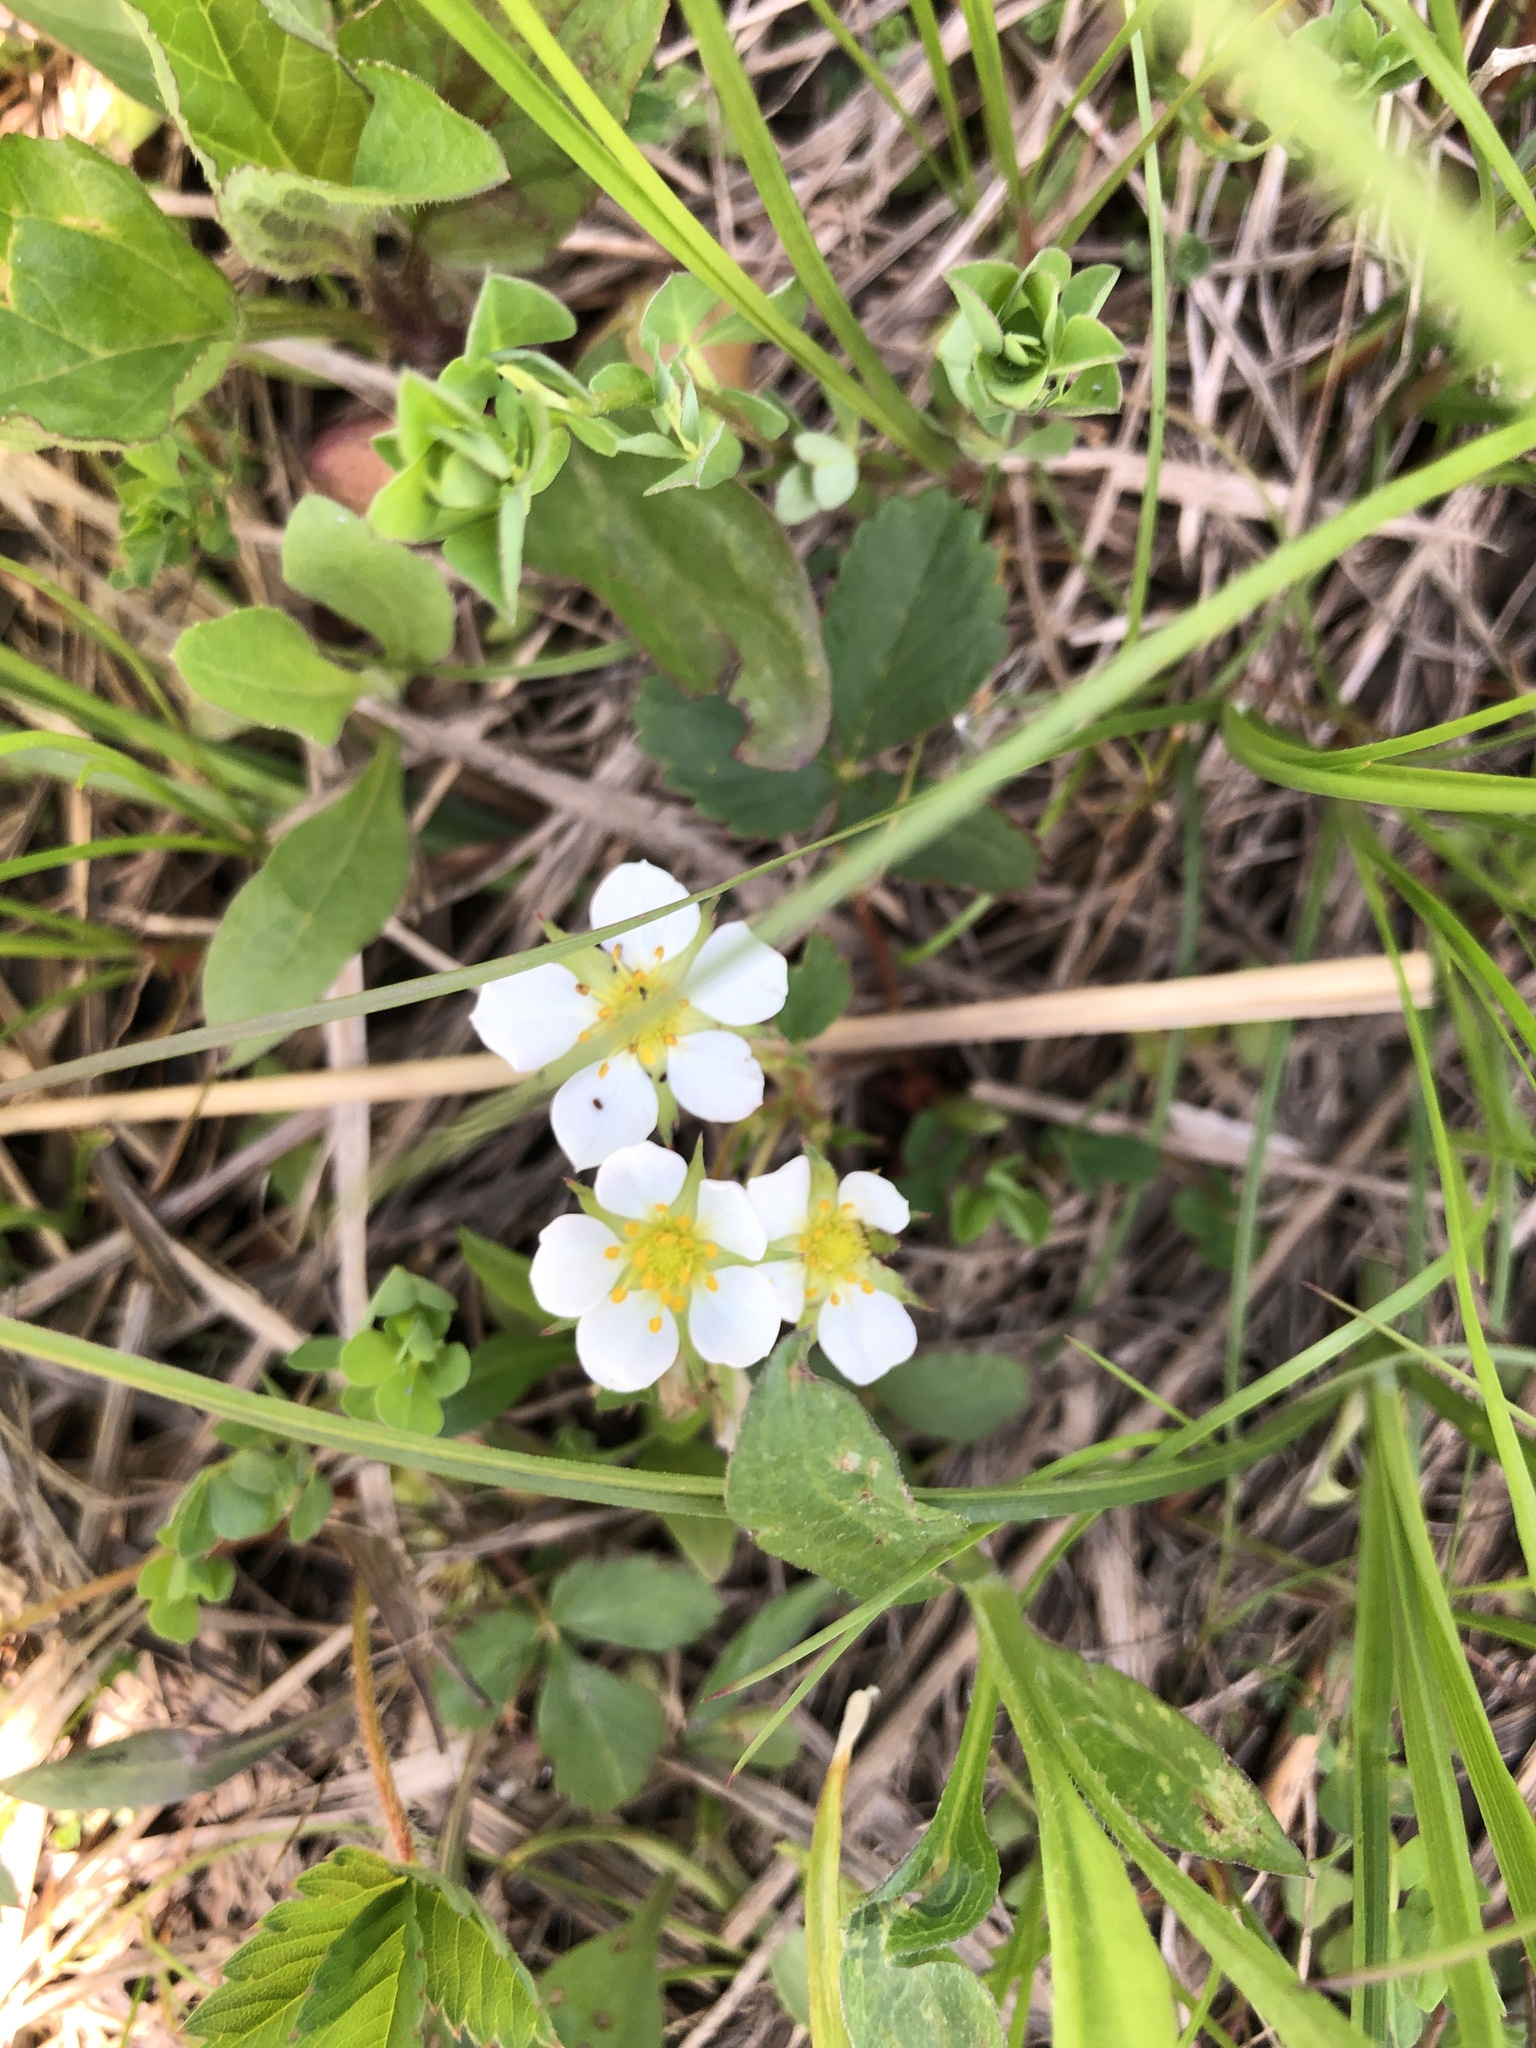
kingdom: Plantae
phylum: Tracheophyta
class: Magnoliopsida
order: Rosales
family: Rosaceae
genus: Fragaria
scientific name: Fragaria virginiana
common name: Thickleaved wild strawberry
